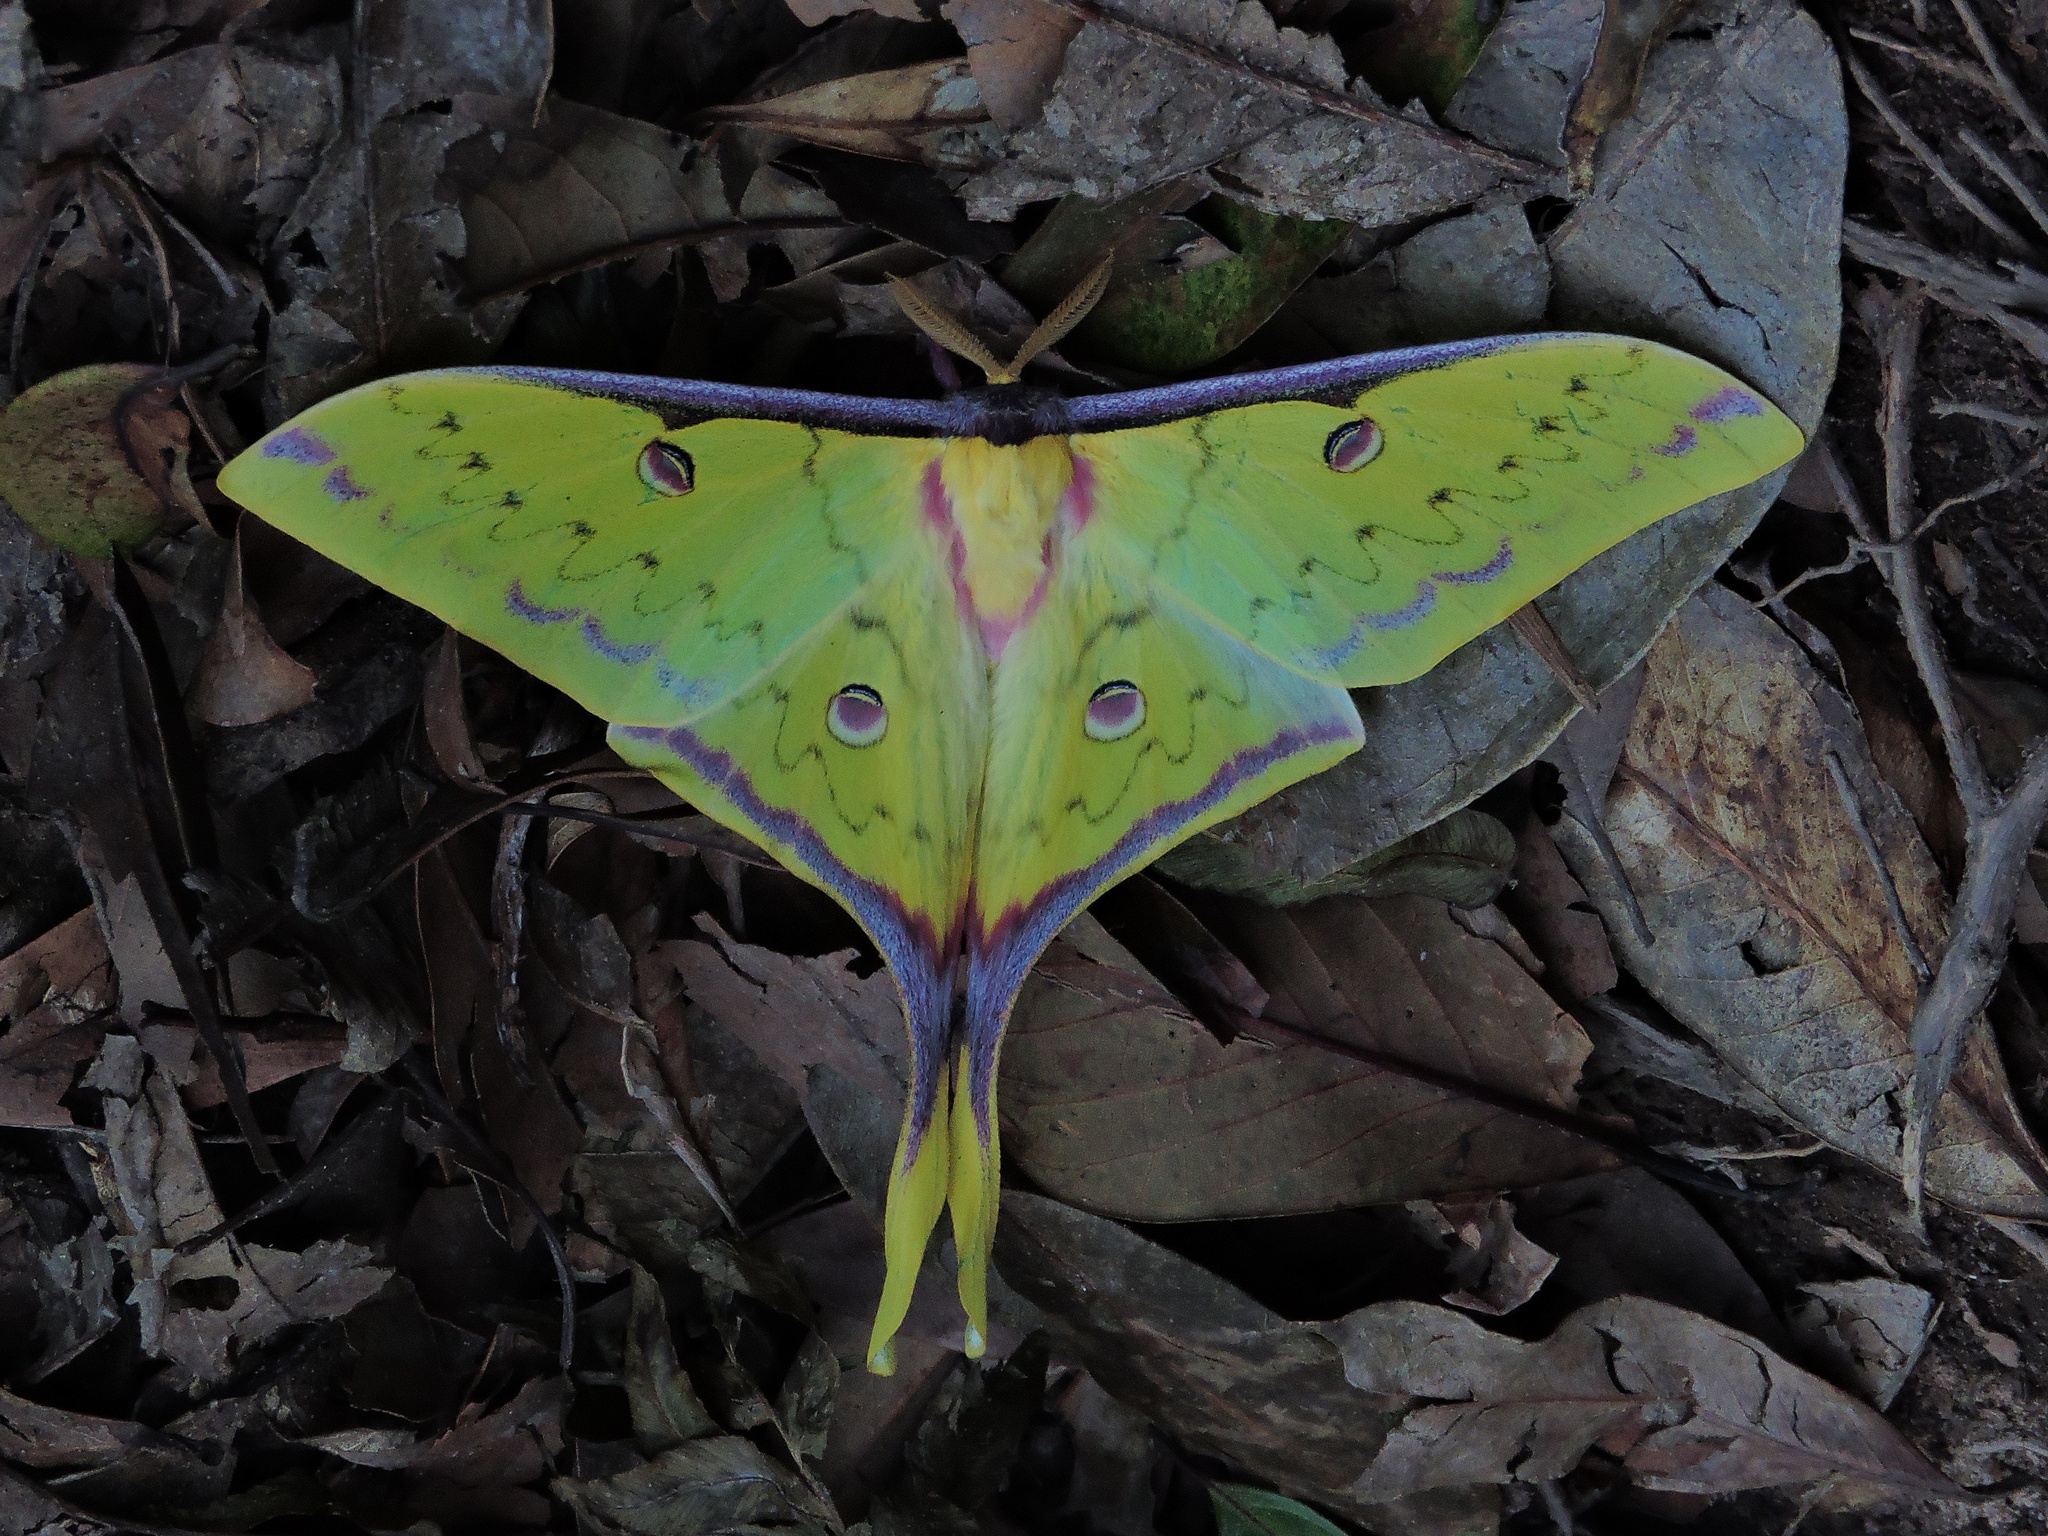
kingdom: Animalia
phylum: Arthropoda
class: Insecta
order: Lepidoptera
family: Saturniidae
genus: Actias
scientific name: Actias sinensis
